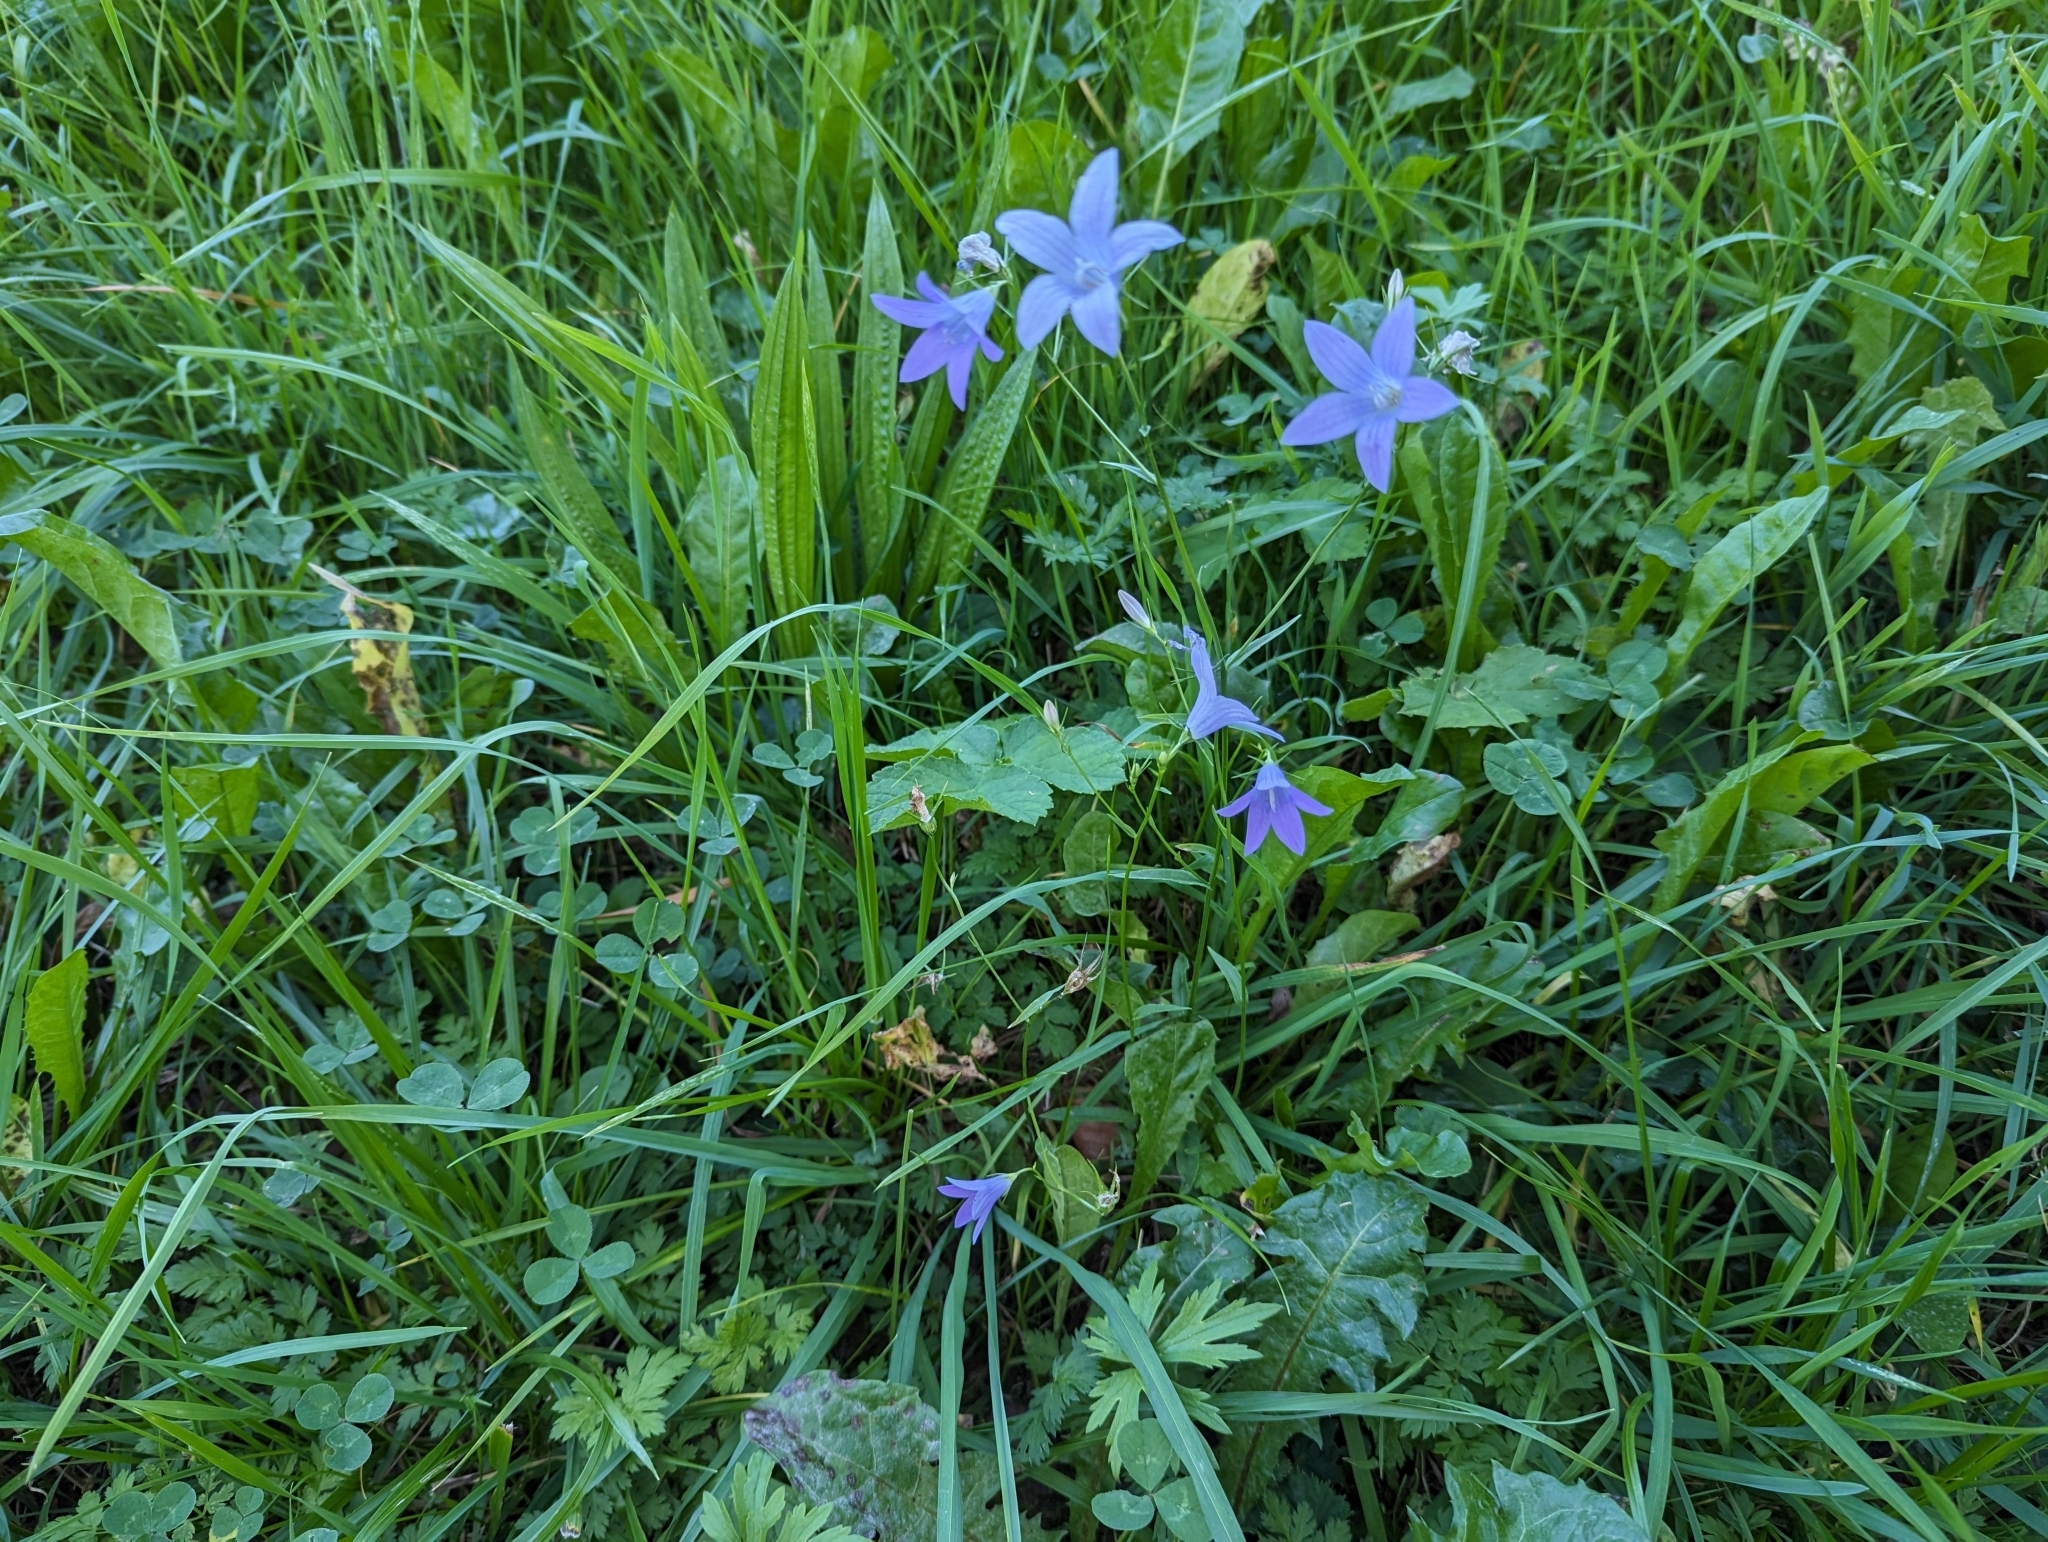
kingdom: Plantae
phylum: Tracheophyta
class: Magnoliopsida
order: Asterales
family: Campanulaceae
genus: Campanula
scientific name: Campanula patula
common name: Spreading bellflower
